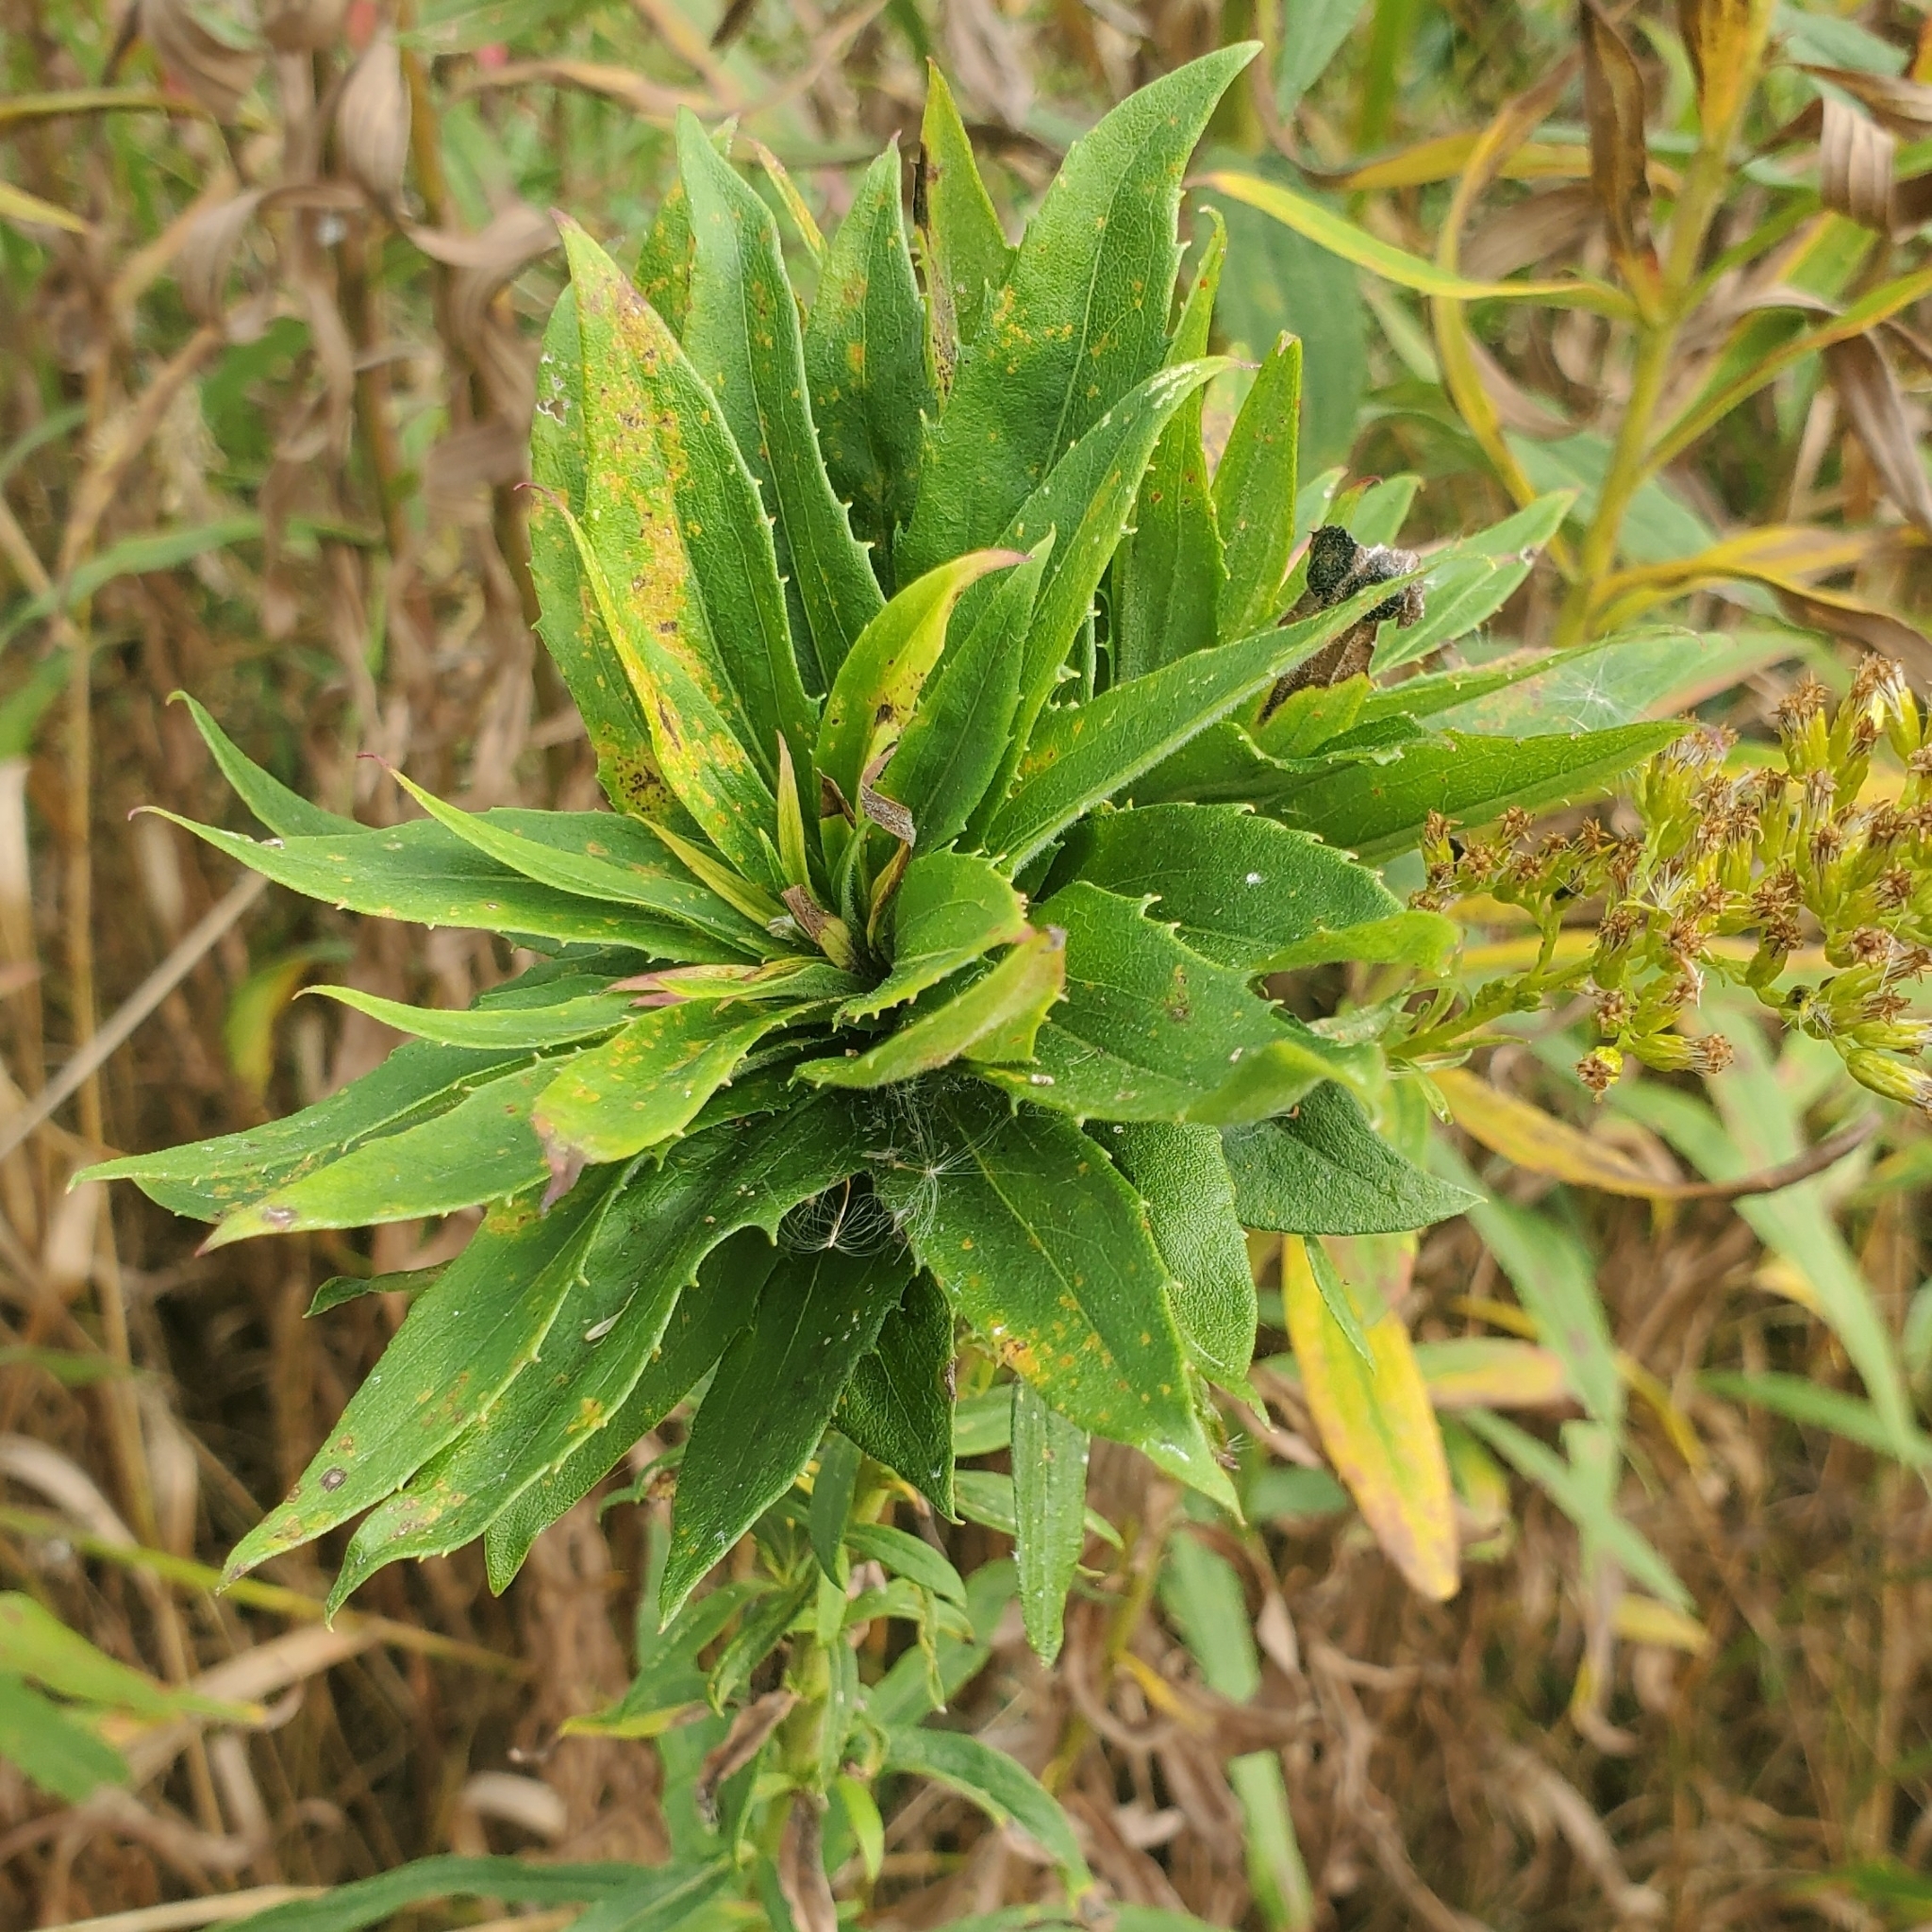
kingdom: Animalia
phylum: Arthropoda
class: Insecta
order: Diptera
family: Cecidomyiidae
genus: Rhopalomyia
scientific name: Rhopalomyia solidaginis
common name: Goldenrod bunch gall midge
